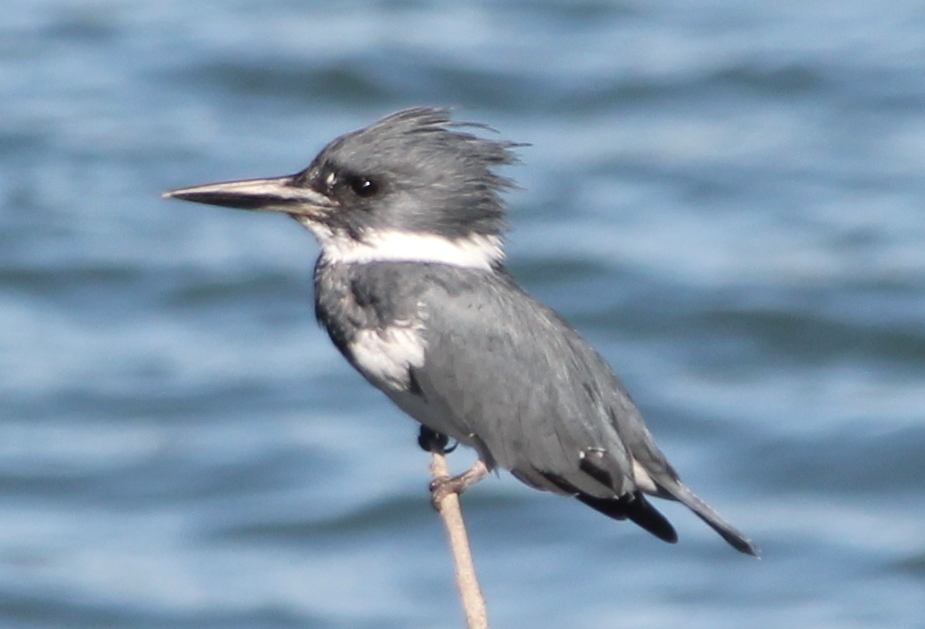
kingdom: Animalia
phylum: Chordata
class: Aves
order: Coraciiformes
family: Alcedinidae
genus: Megaceryle
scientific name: Megaceryle alcyon
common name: Belted kingfisher
